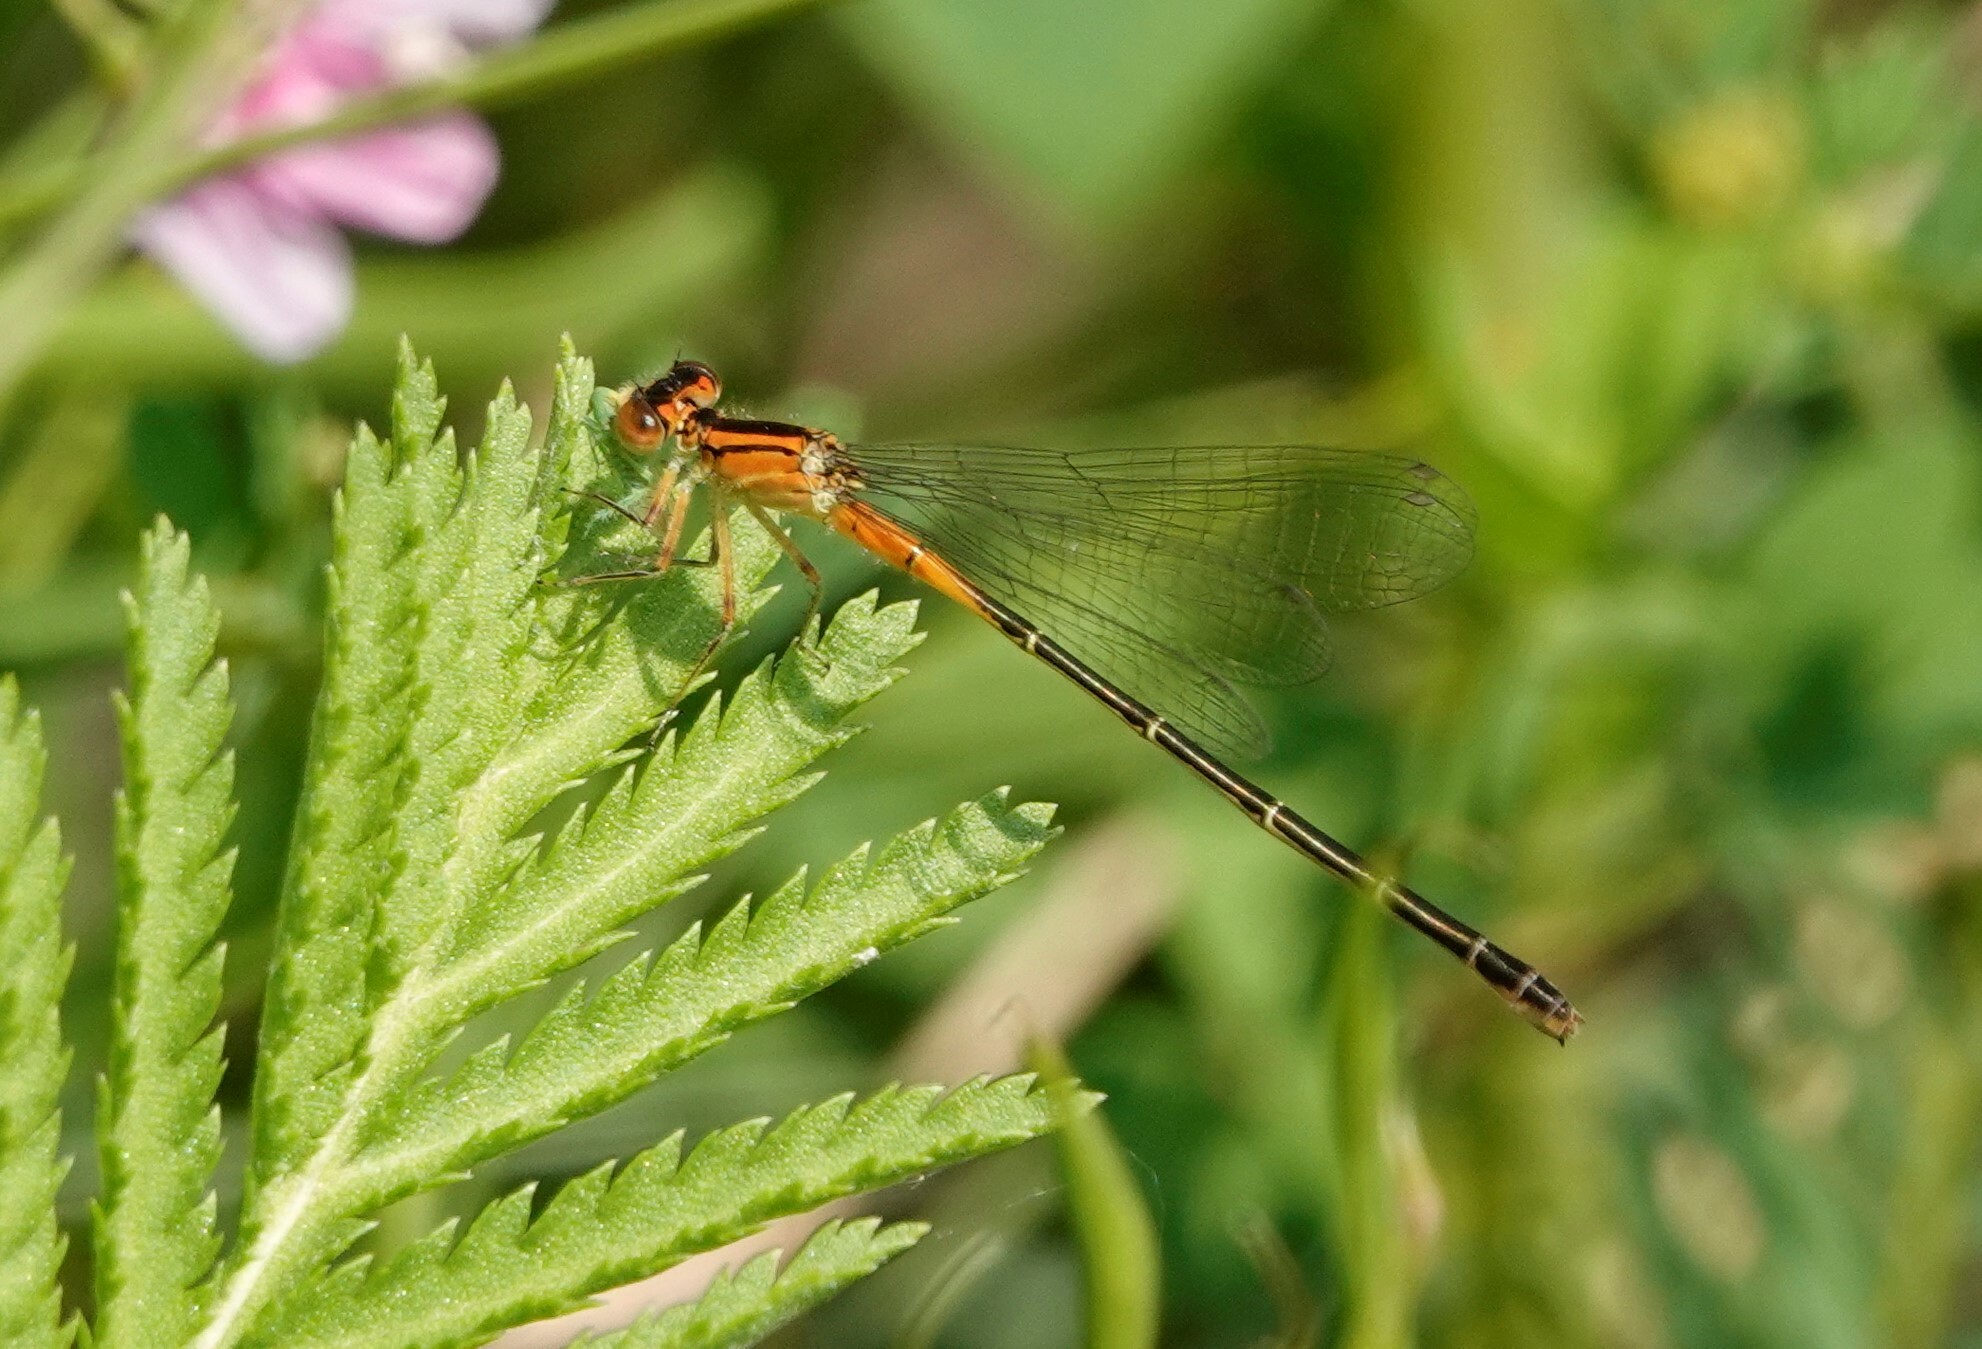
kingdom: Animalia
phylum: Arthropoda
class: Insecta
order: Odonata
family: Coenagrionidae
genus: Ischnura
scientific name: Ischnura verticalis
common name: Eastern forktail
